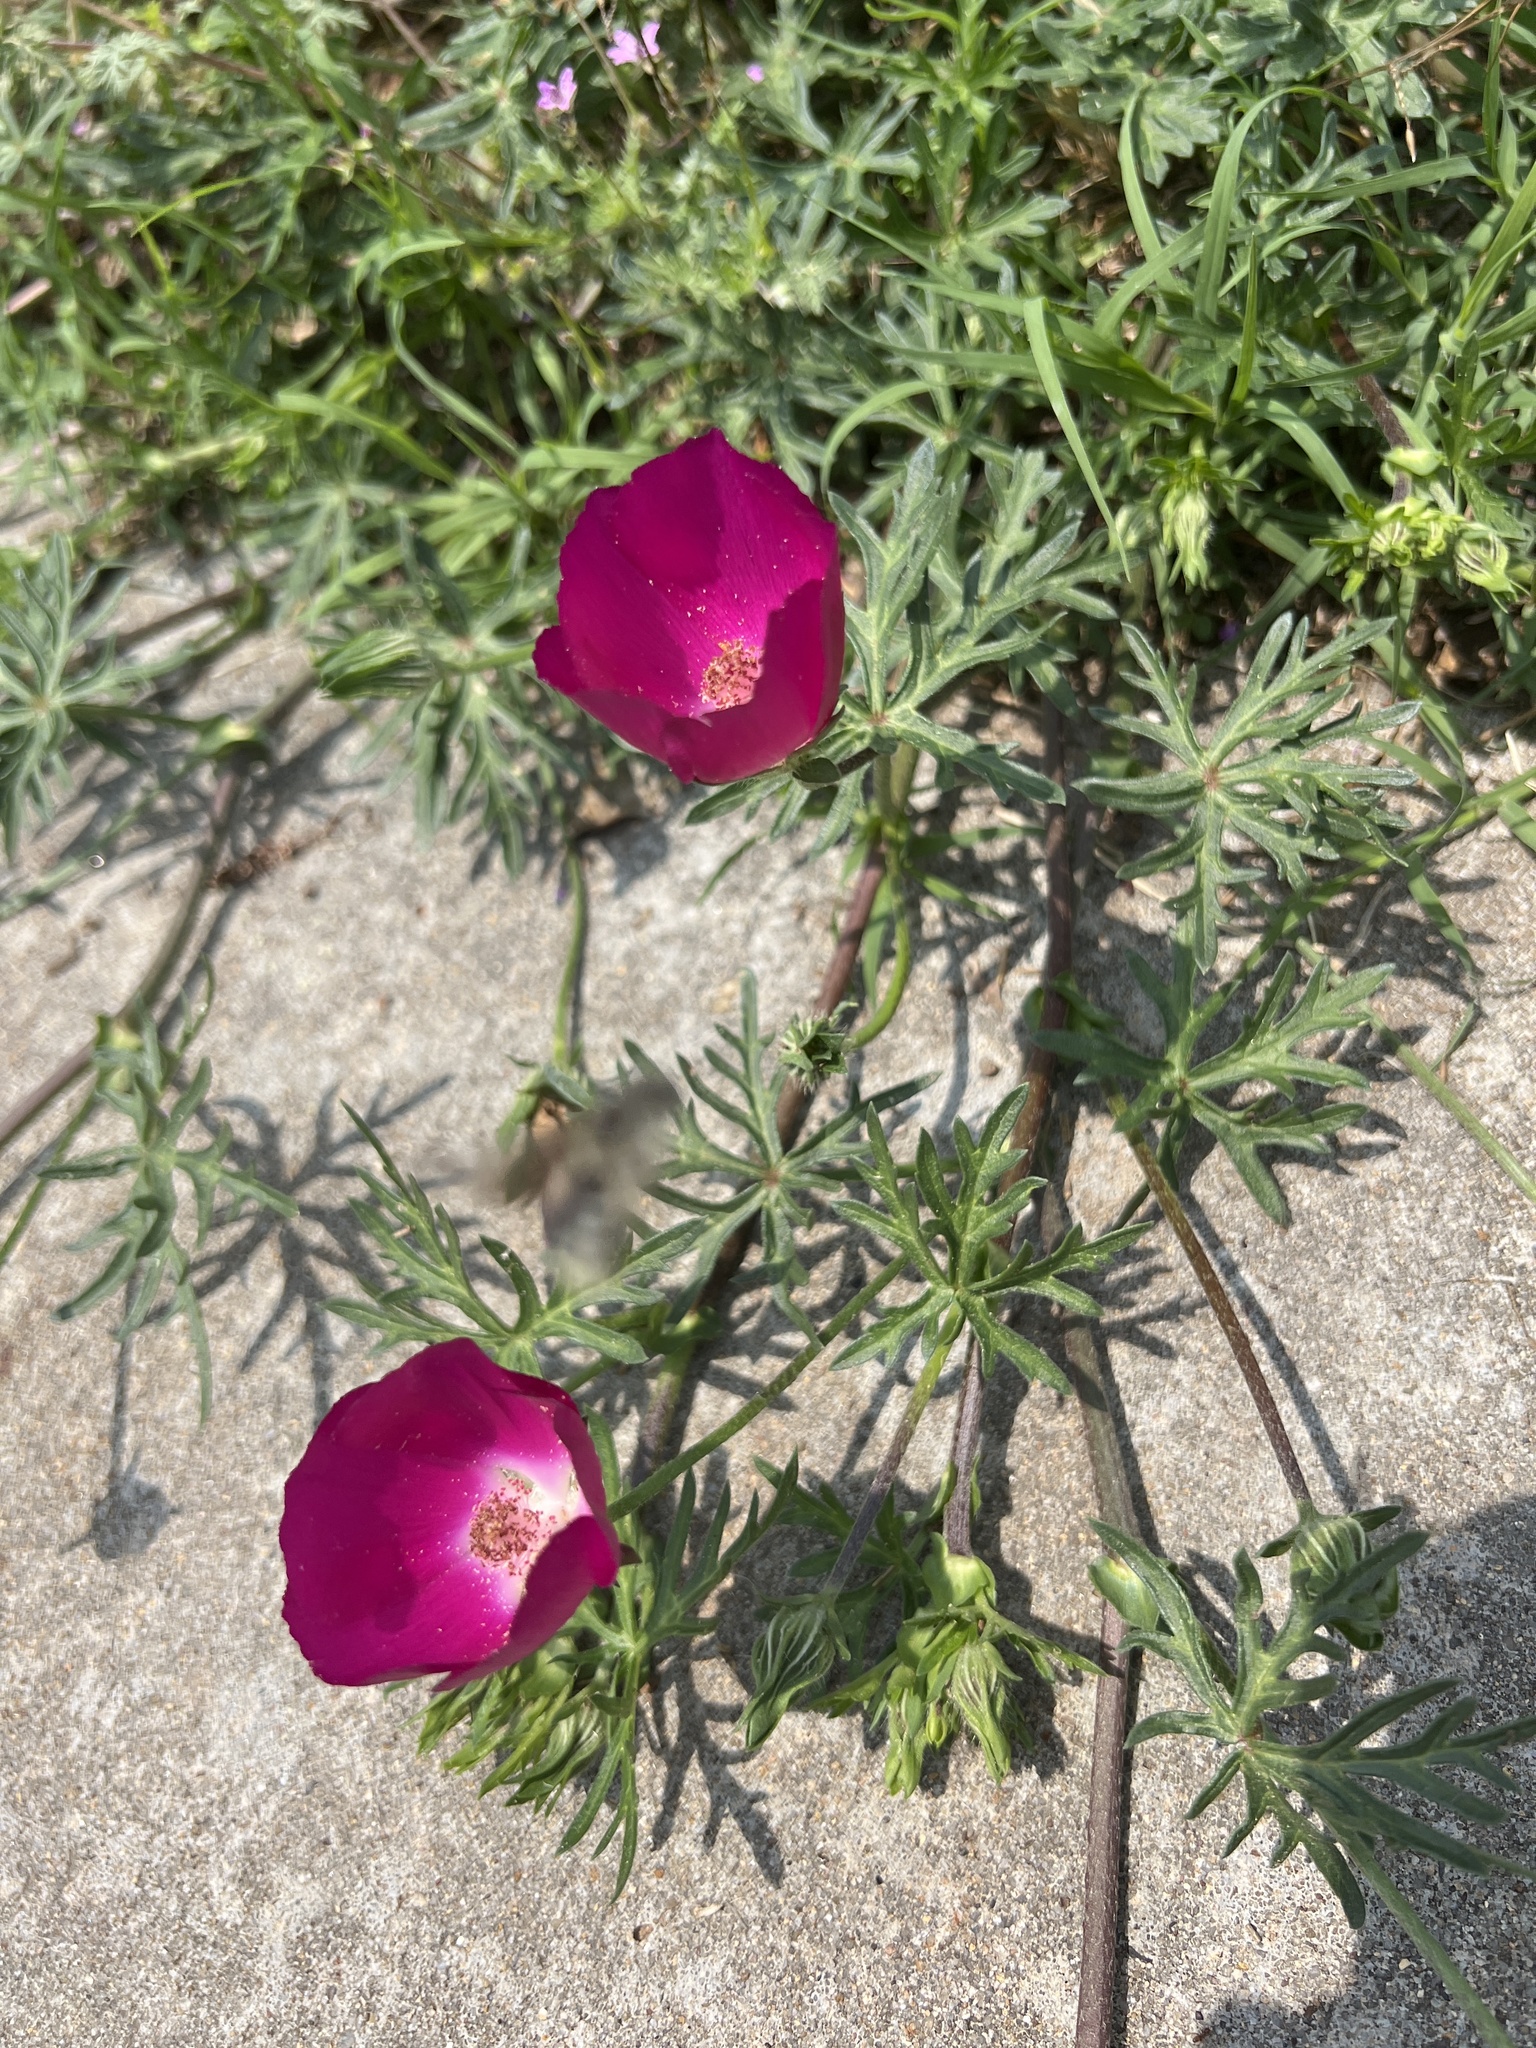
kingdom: Plantae
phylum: Tracheophyta
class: Magnoliopsida
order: Malvales
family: Malvaceae
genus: Callirhoe
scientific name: Callirhoe involucrata
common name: Purple poppy-mallow
